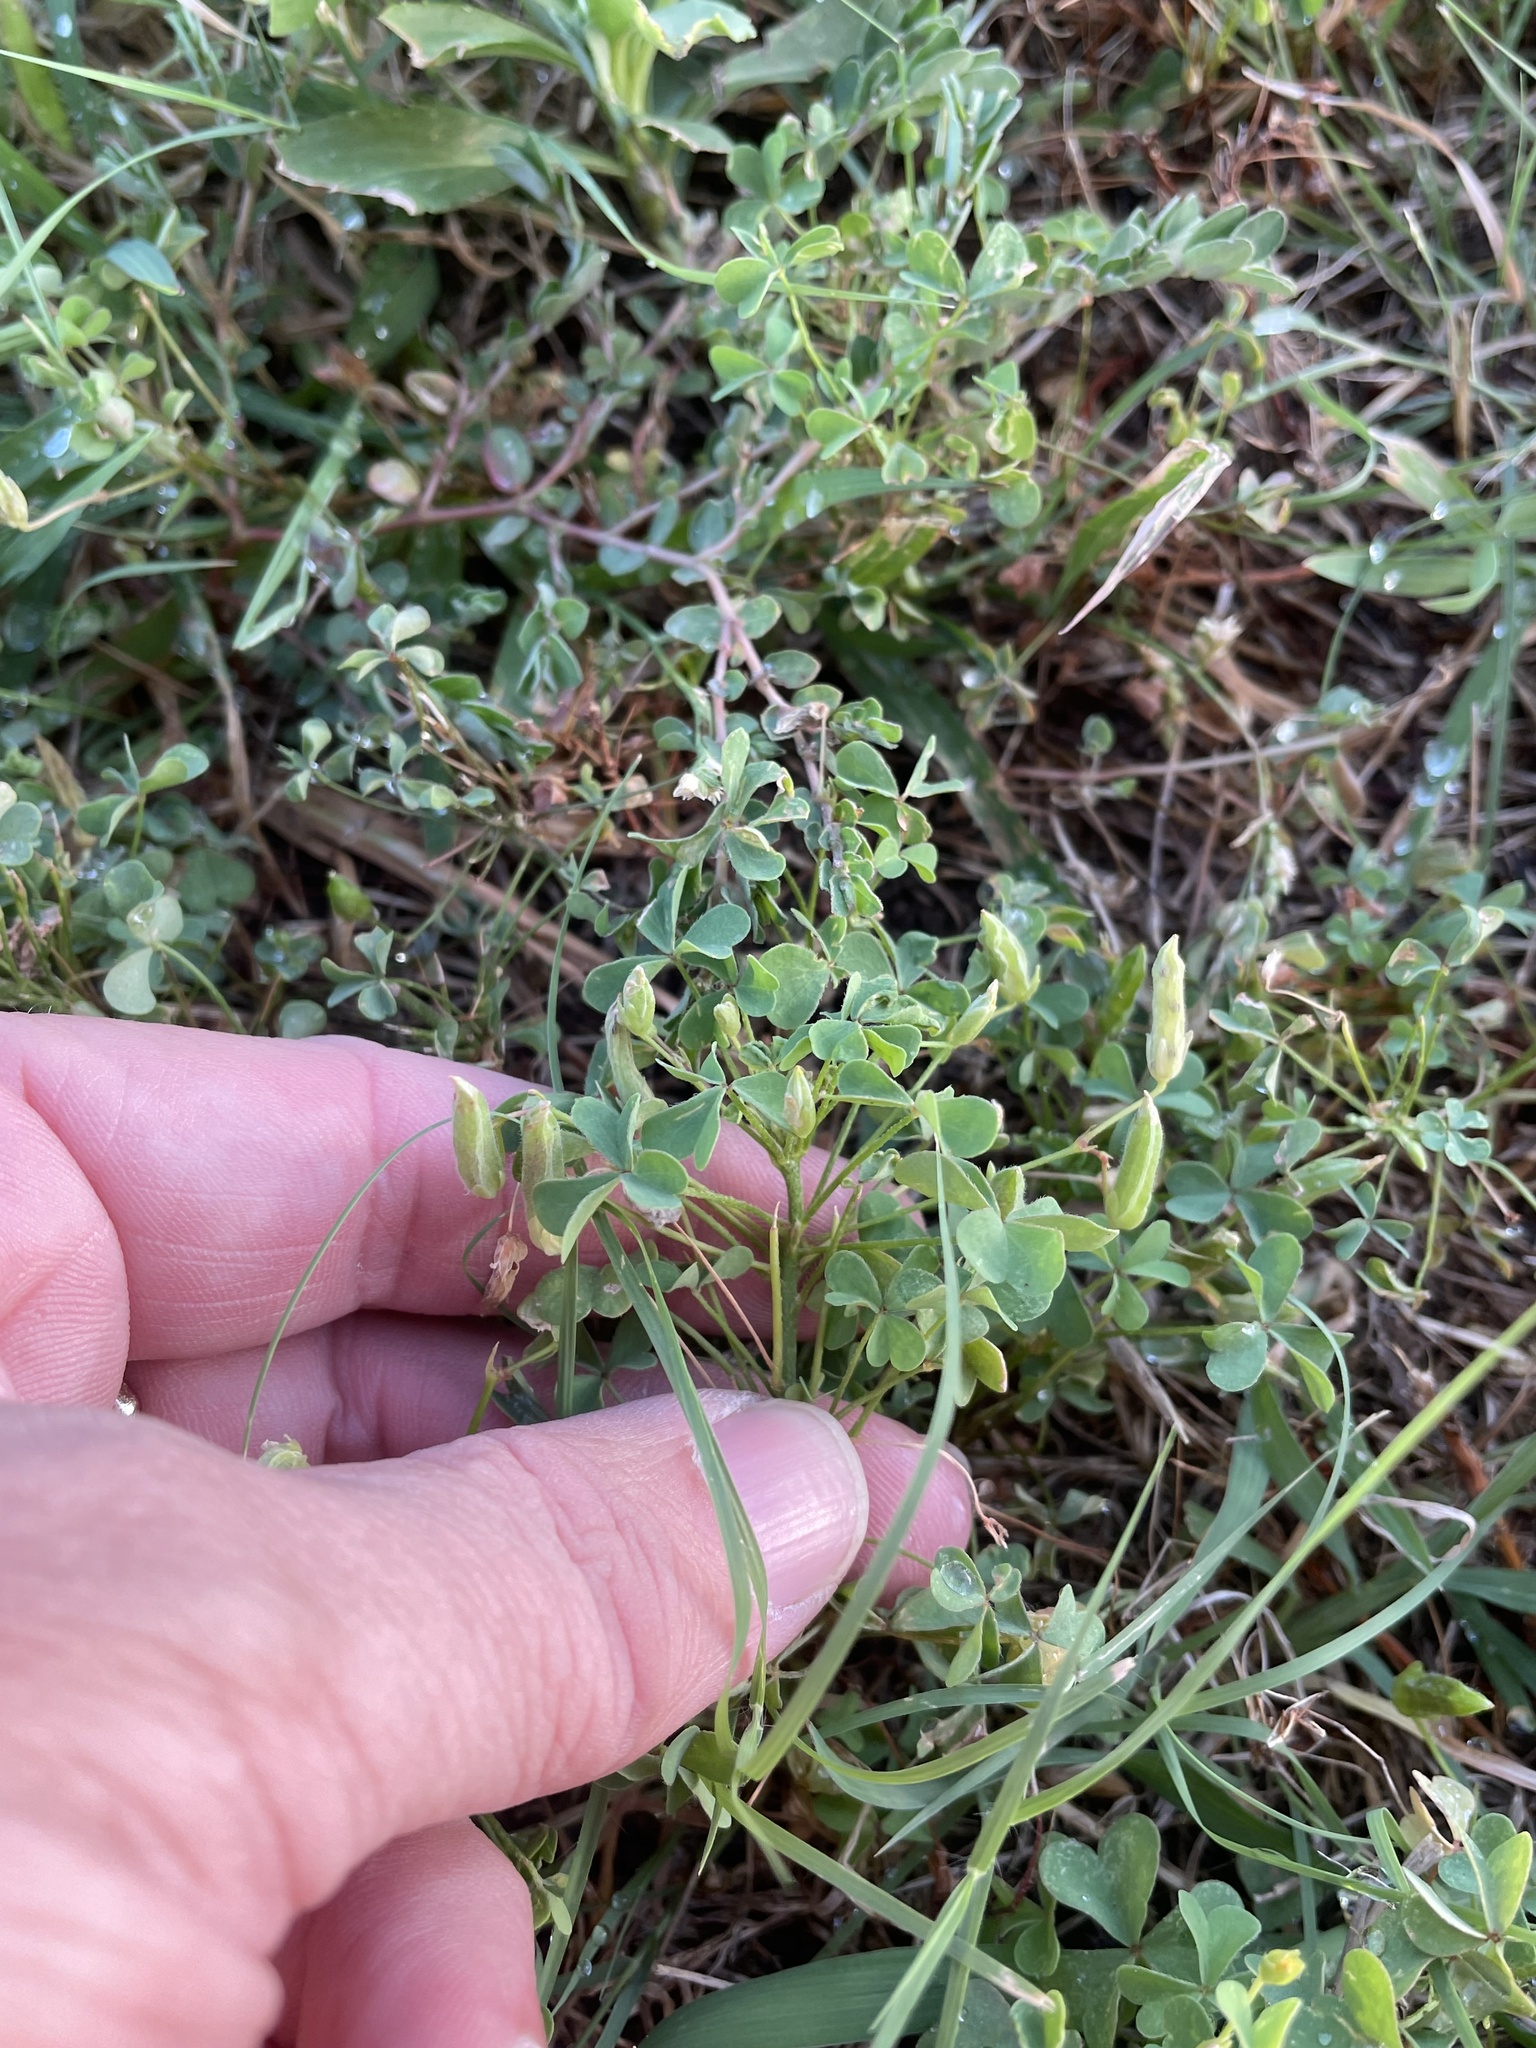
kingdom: Plantae
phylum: Tracheophyta
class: Magnoliopsida
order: Oxalidales
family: Oxalidaceae
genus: Oxalis
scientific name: Oxalis dillenii
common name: Sussex yellow-sorrel
